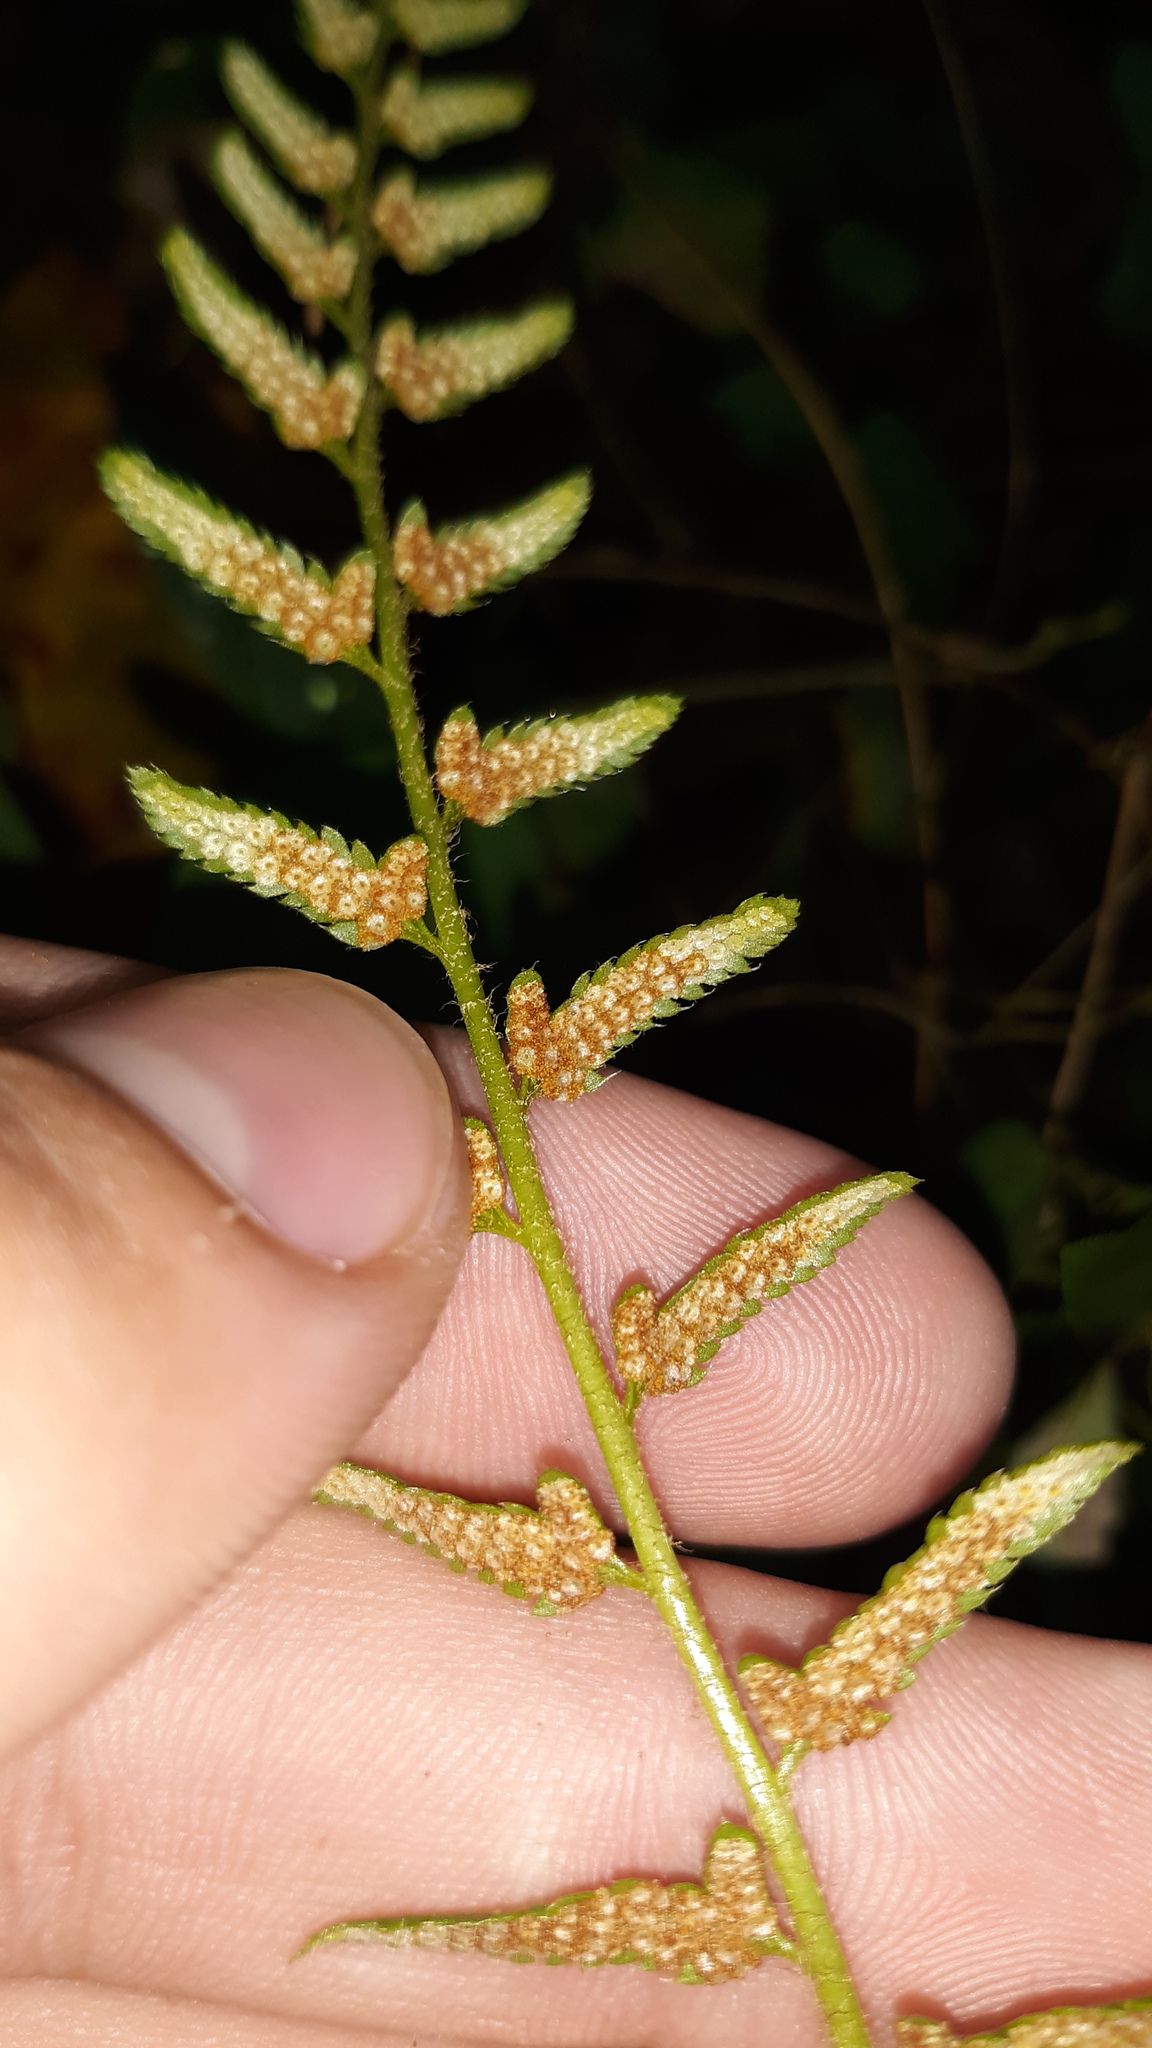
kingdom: Plantae
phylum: Tracheophyta
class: Polypodiopsida
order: Polypodiales
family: Dryopteridaceae
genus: Polystichum
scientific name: Polystichum acrostichoides
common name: Christmas fern
